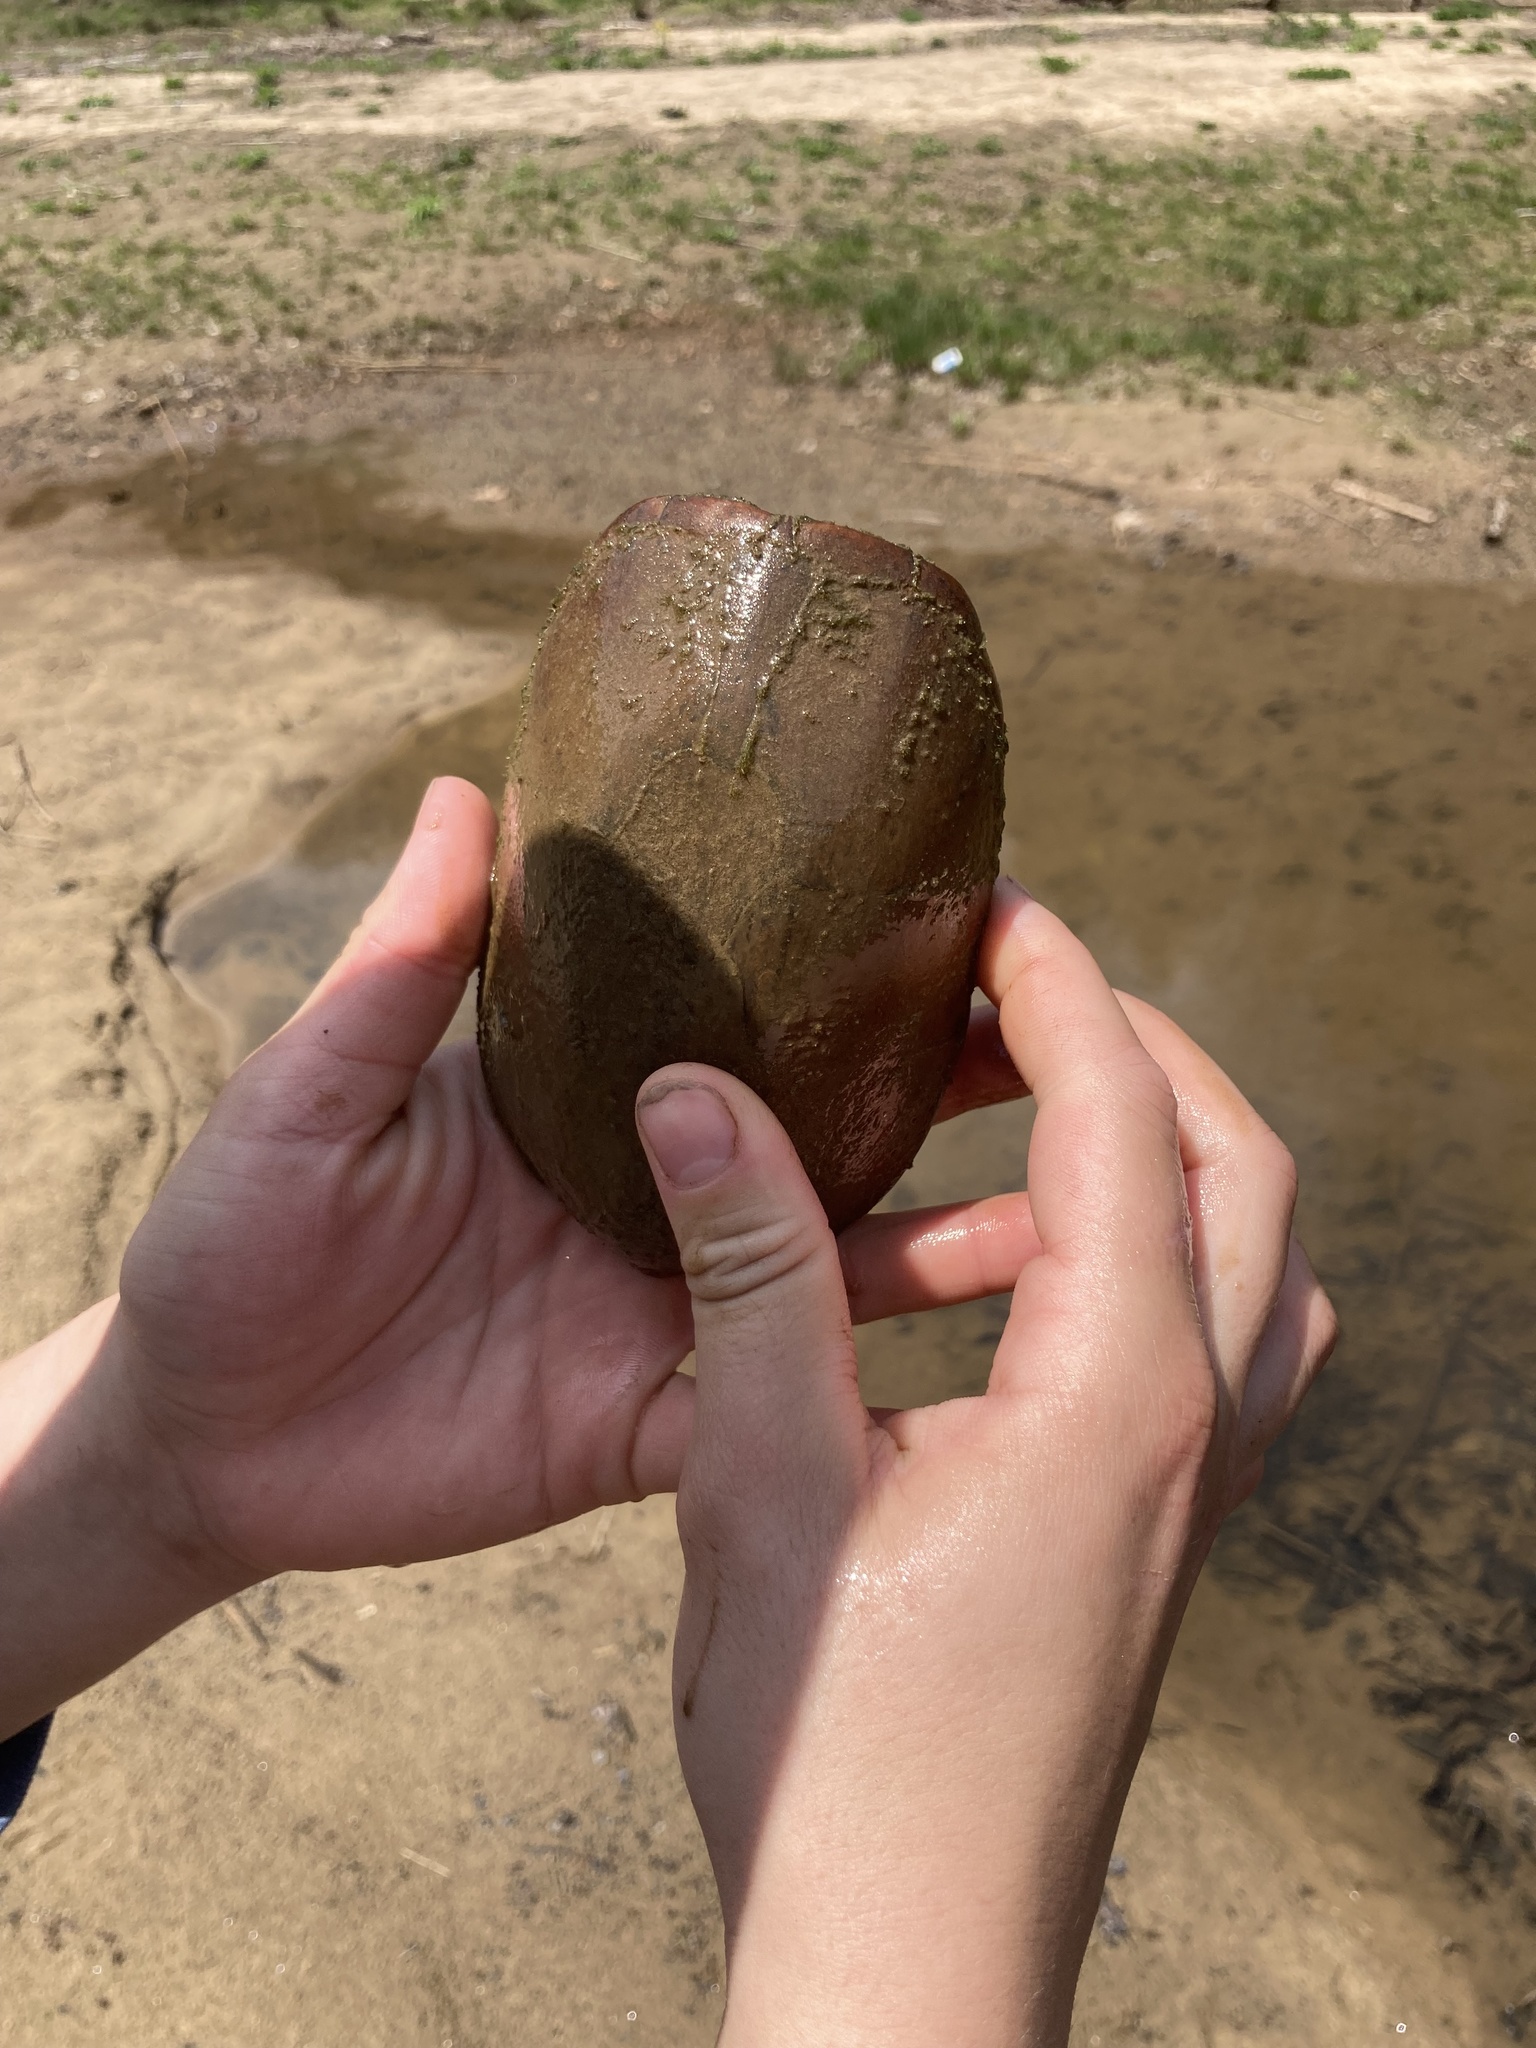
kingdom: Animalia
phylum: Chordata
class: Testudines
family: Kinosternidae
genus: Sternotherus
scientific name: Sternotherus odoratus
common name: Common musk turtle
